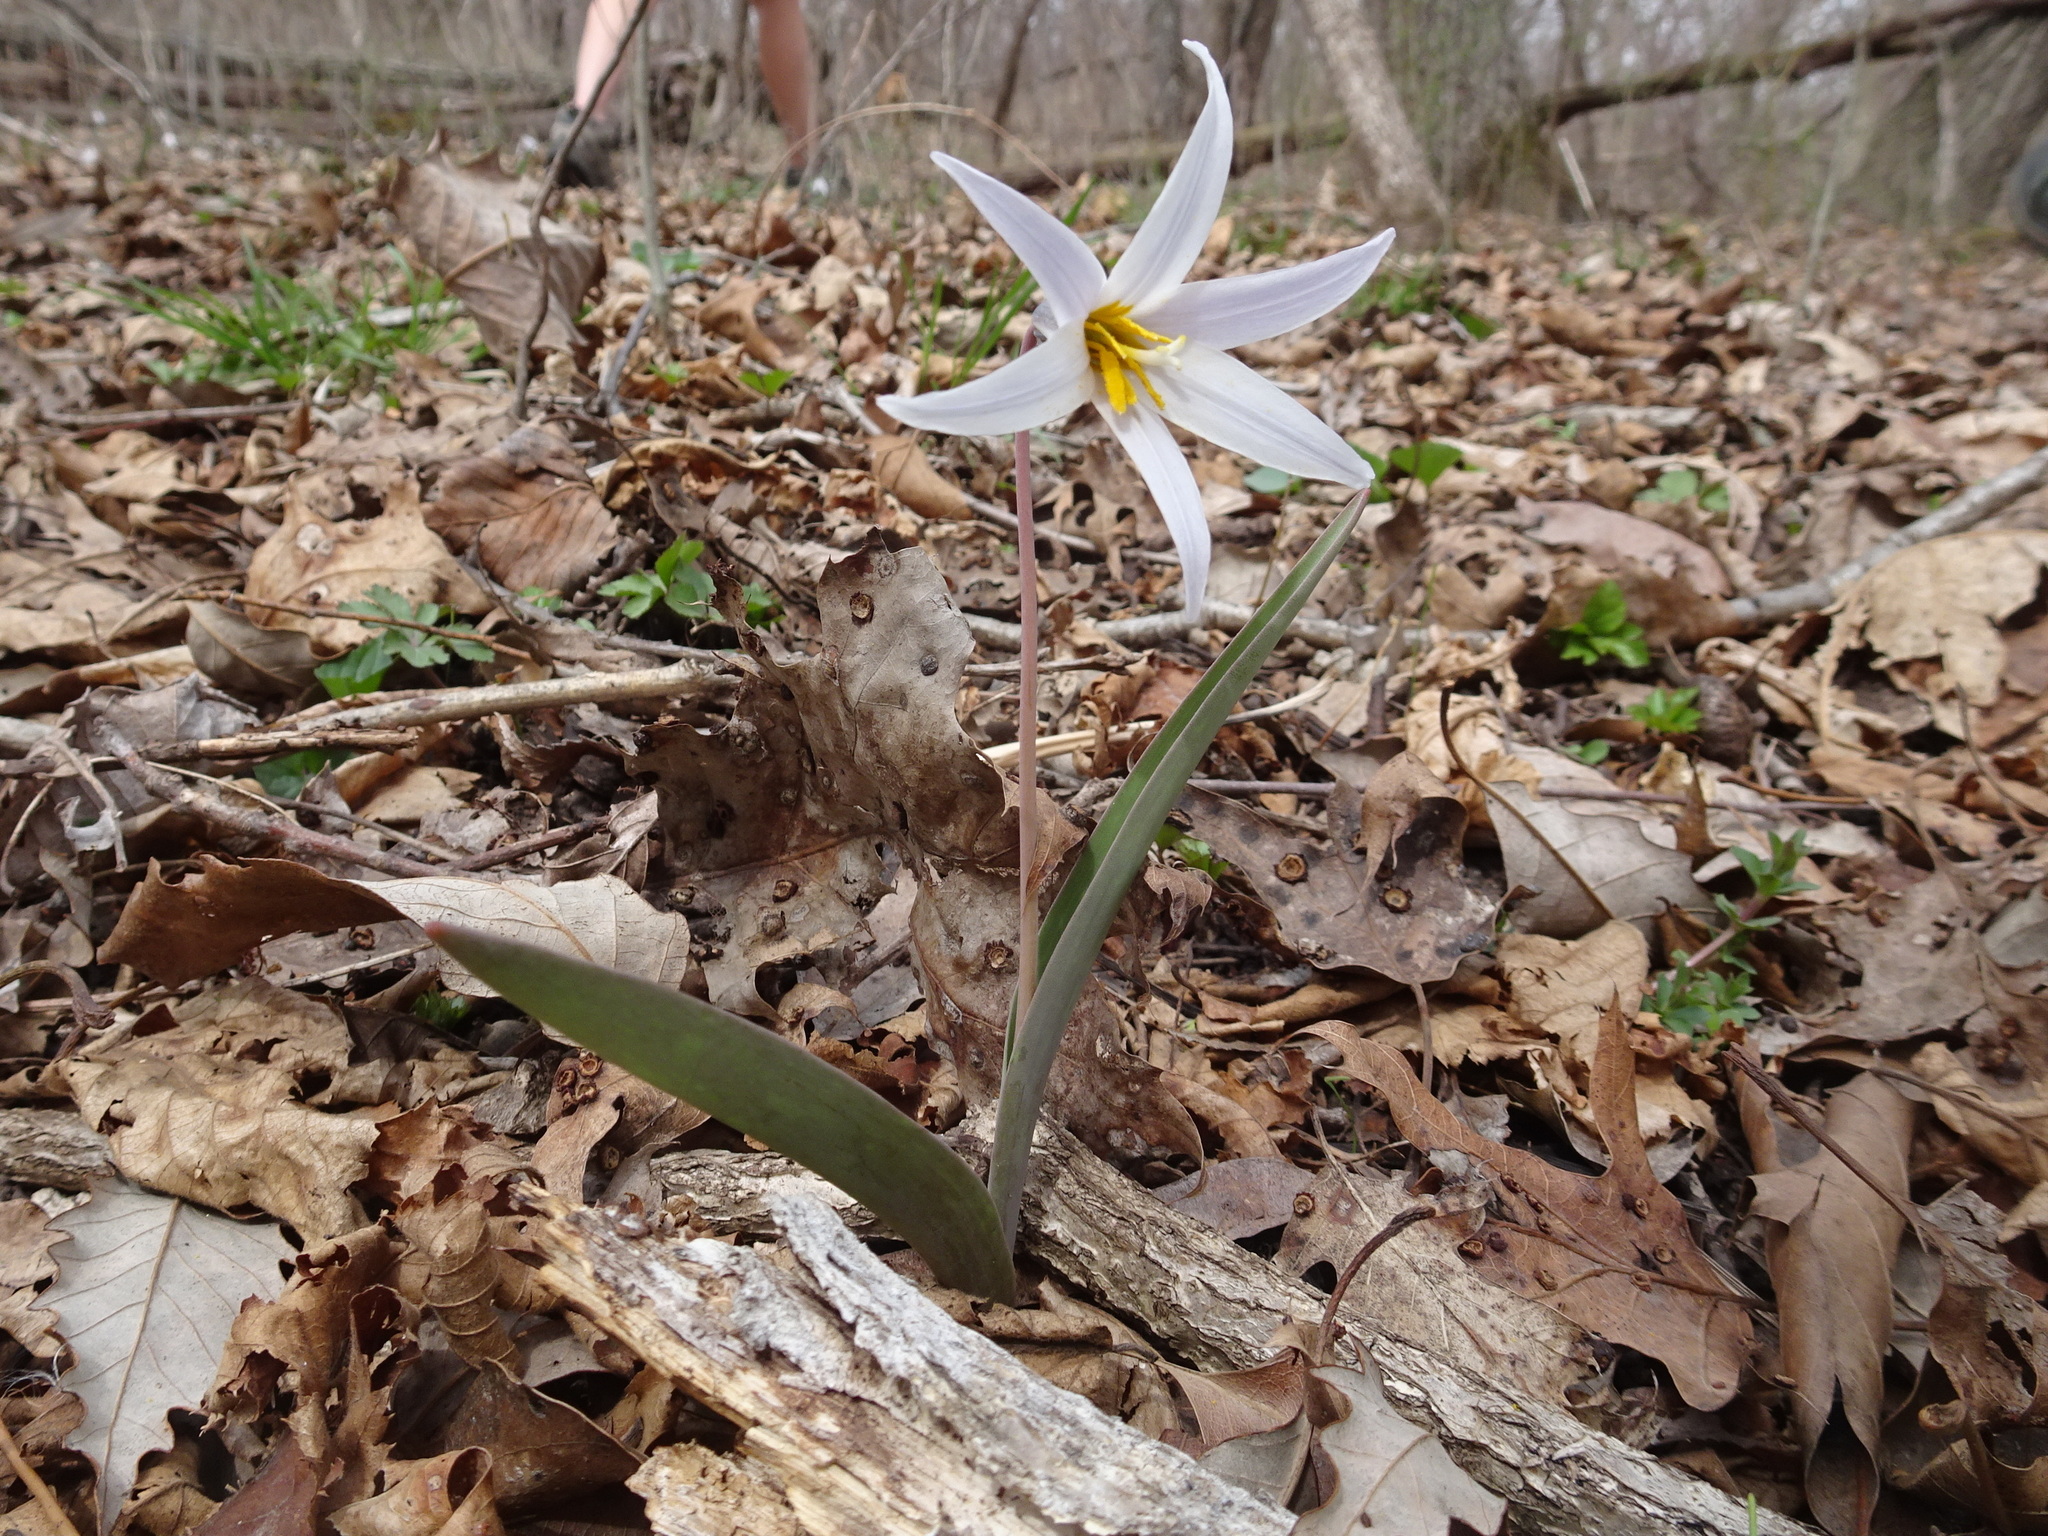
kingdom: Plantae
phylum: Tracheophyta
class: Liliopsida
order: Liliales
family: Liliaceae
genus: Erythronium
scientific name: Erythronium mesochoreum
